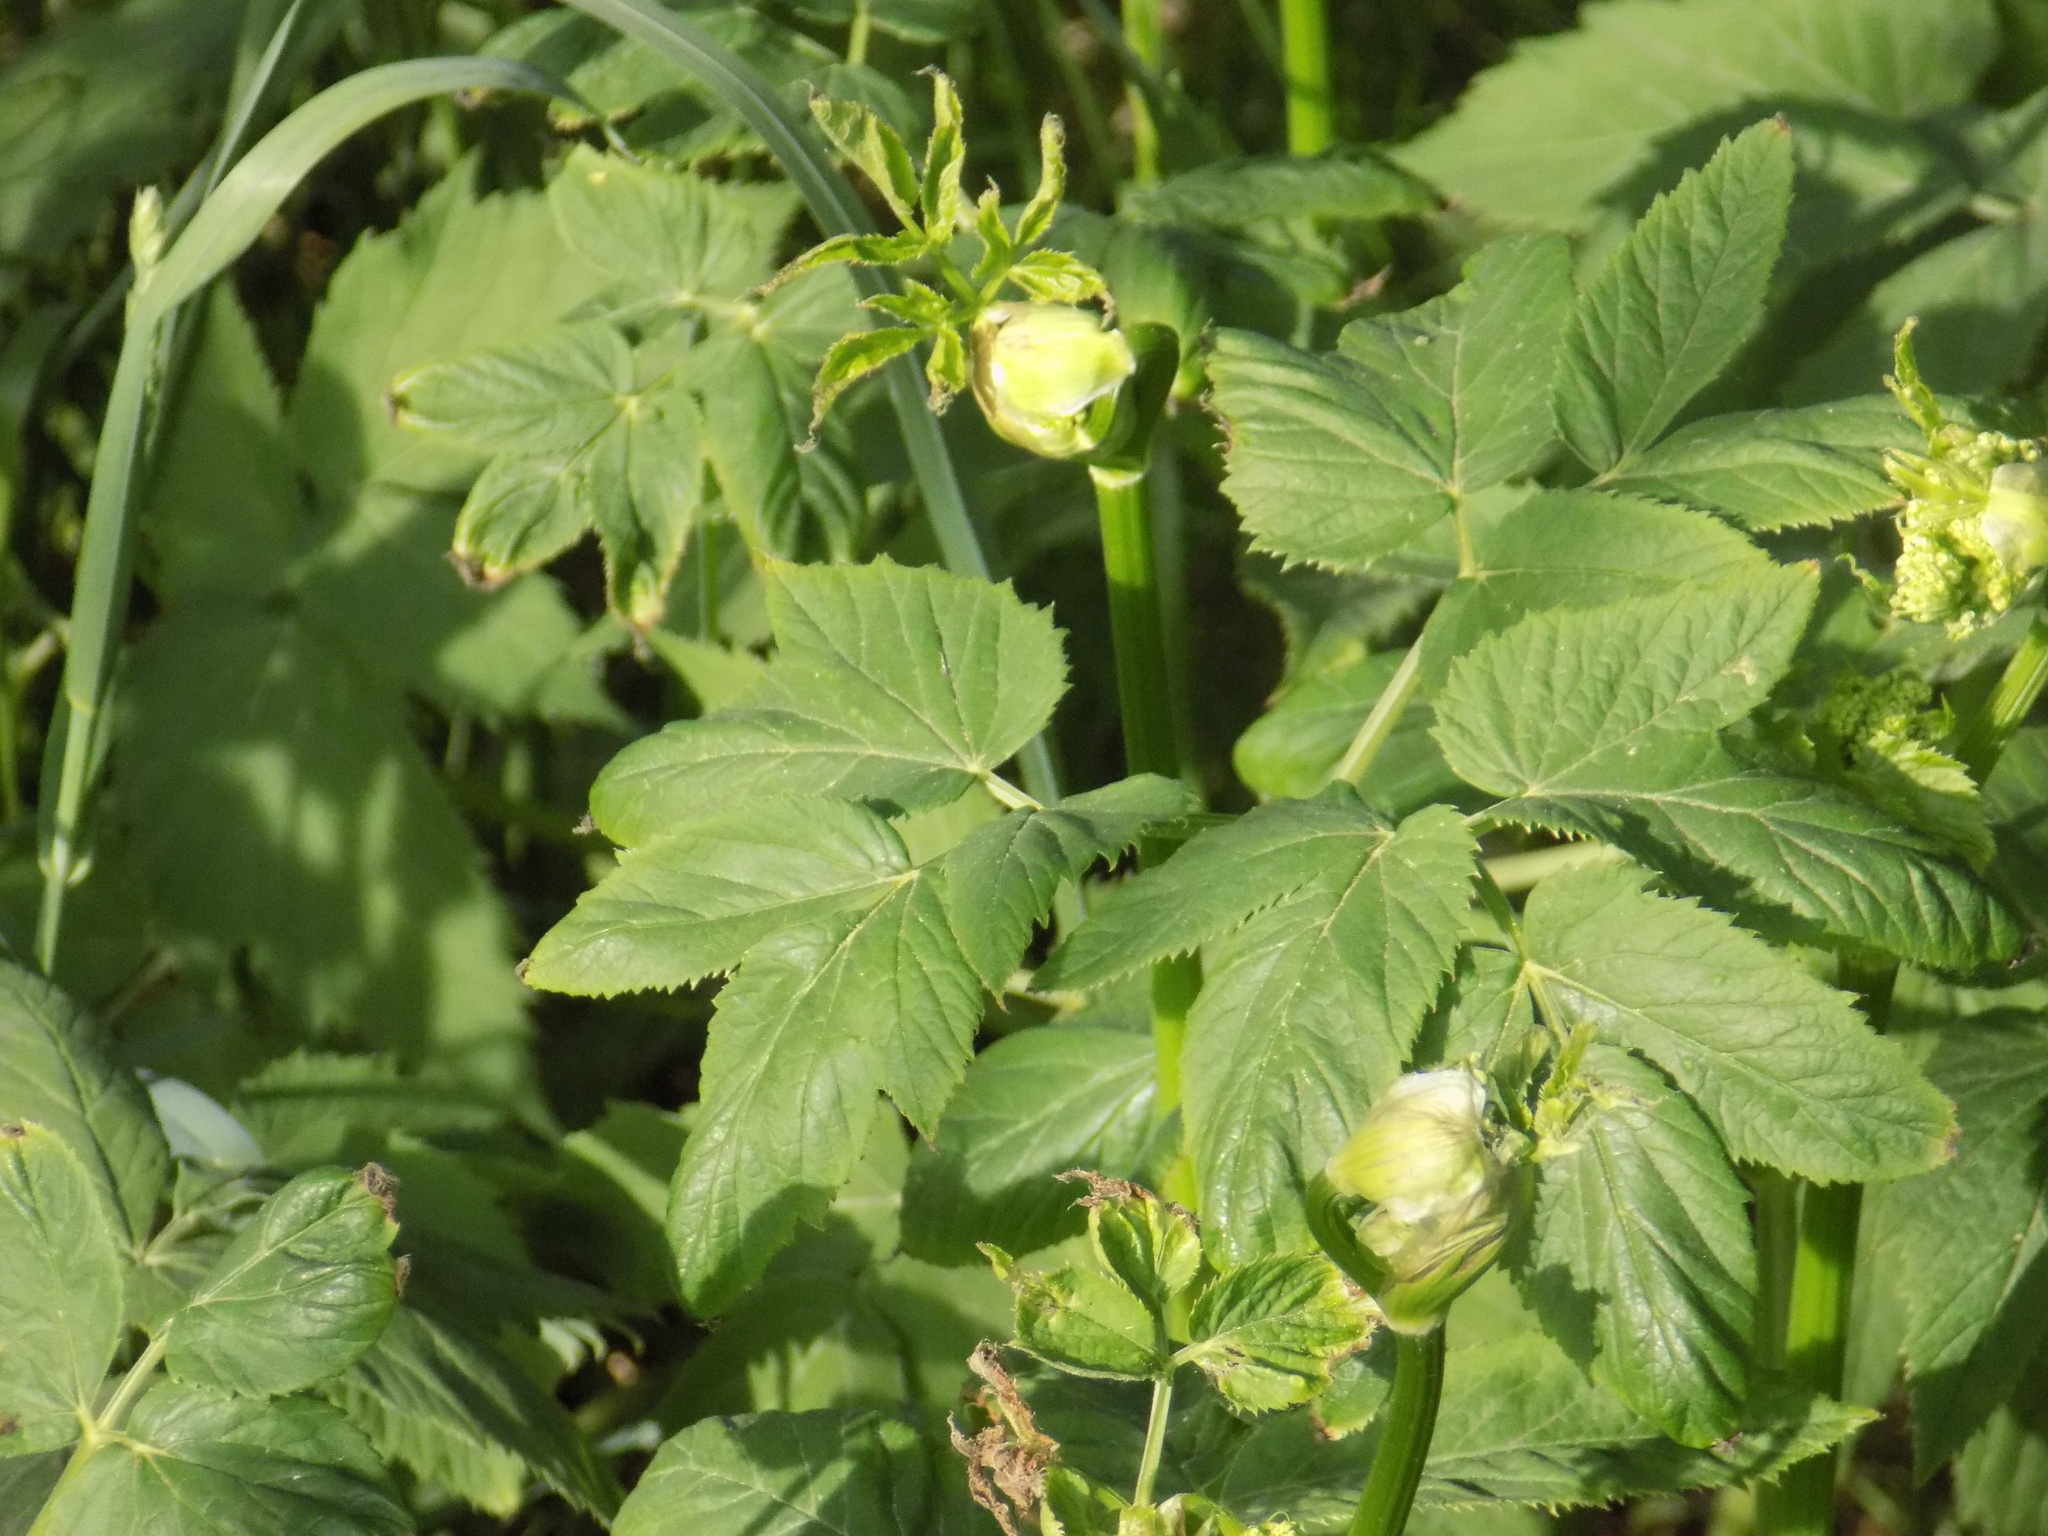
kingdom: Plantae
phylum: Tracheophyta
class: Magnoliopsida
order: Apiales
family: Apiaceae
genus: Aegopodium
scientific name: Aegopodium podagraria
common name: Ground-elder
